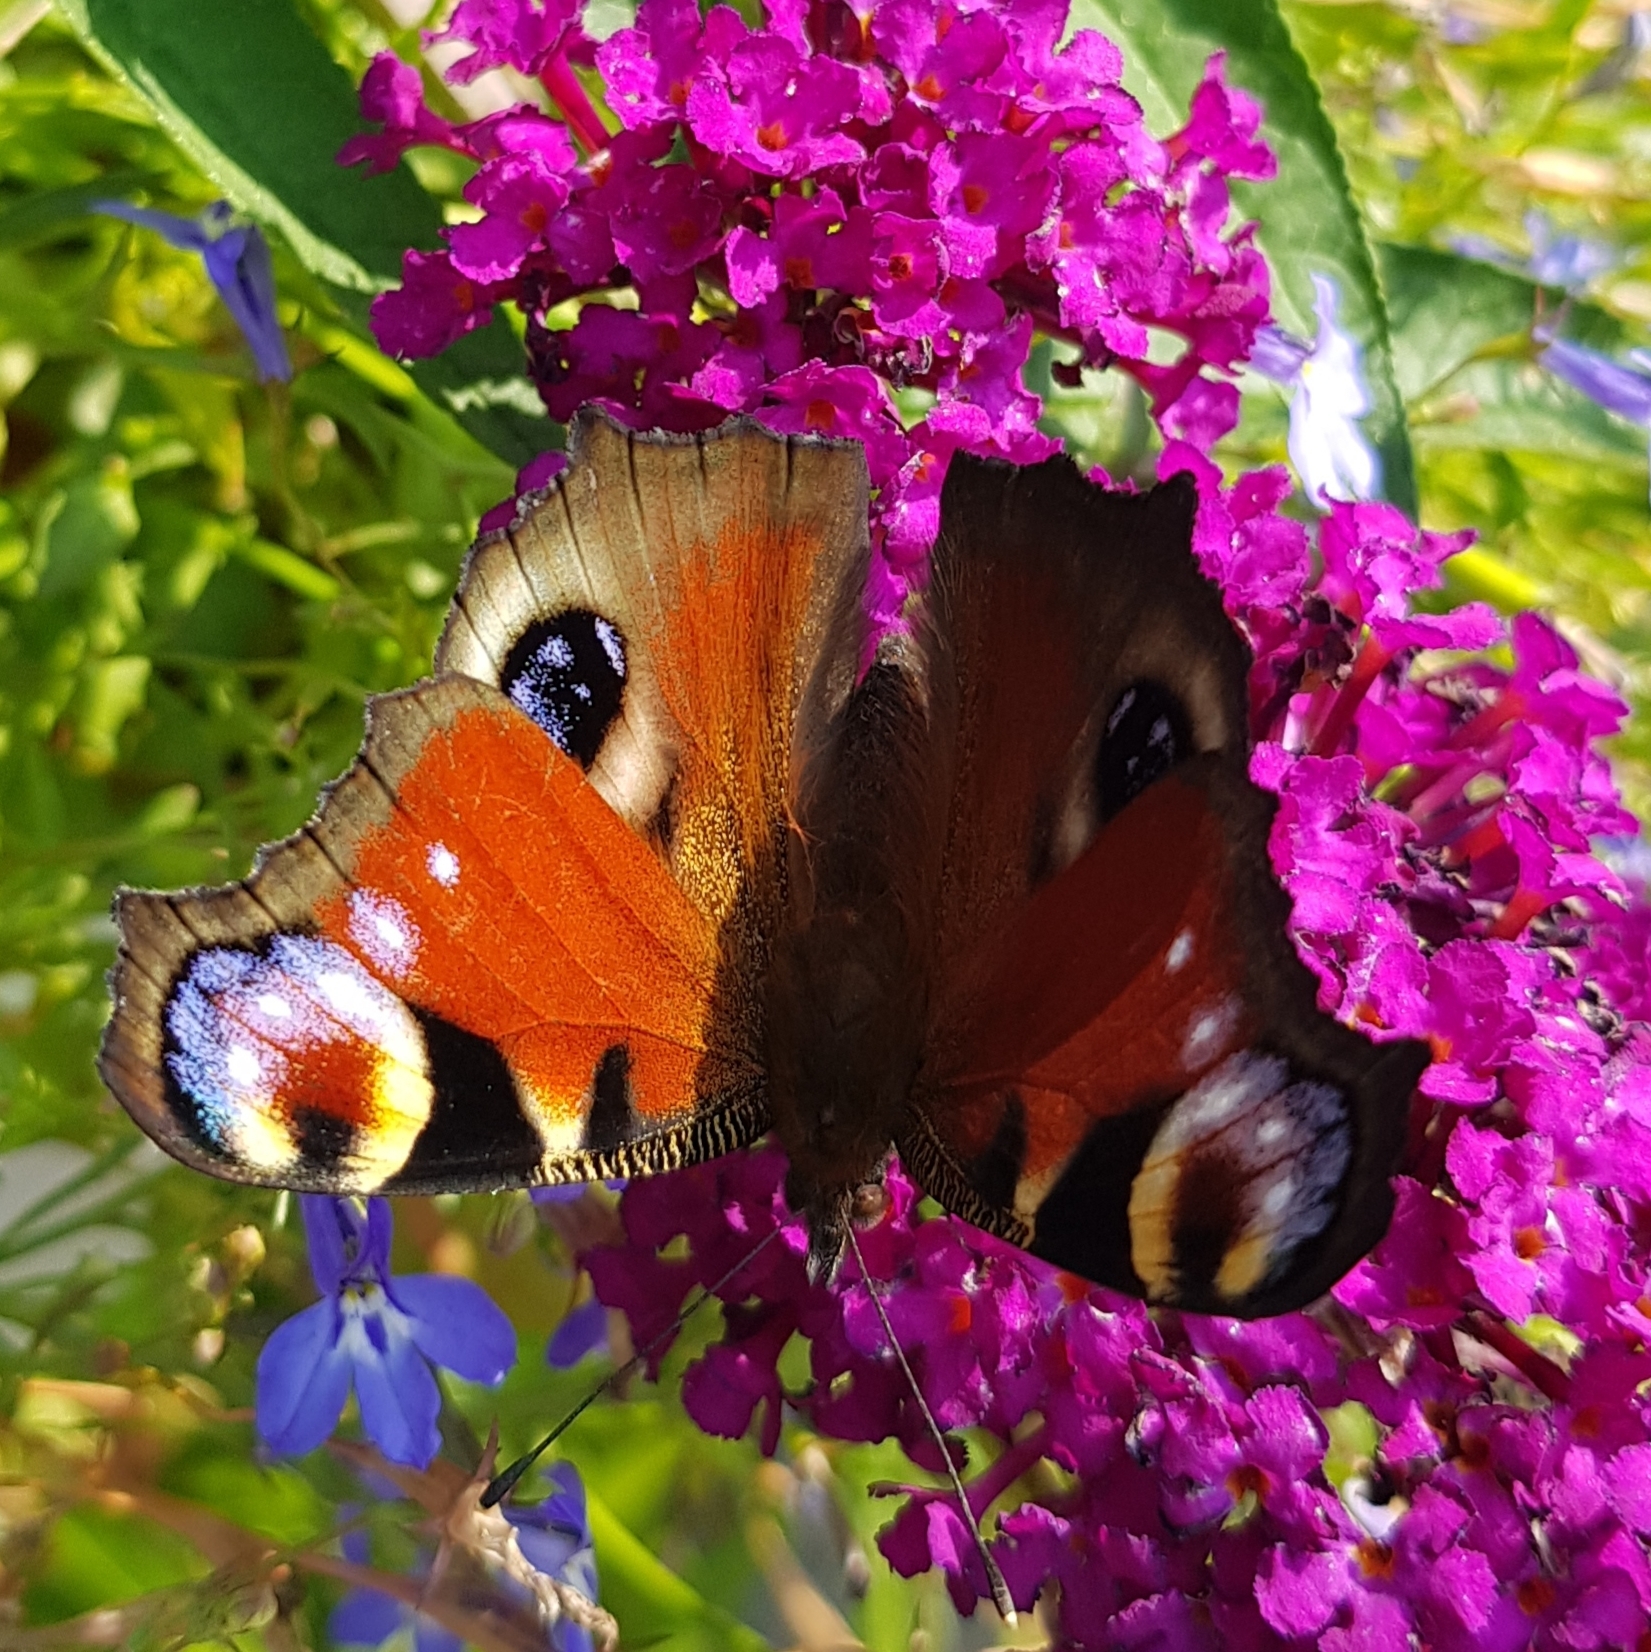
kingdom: Animalia
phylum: Arthropoda
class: Insecta
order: Lepidoptera
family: Nymphalidae
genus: Aglais
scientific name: Aglais io
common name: Peacock
